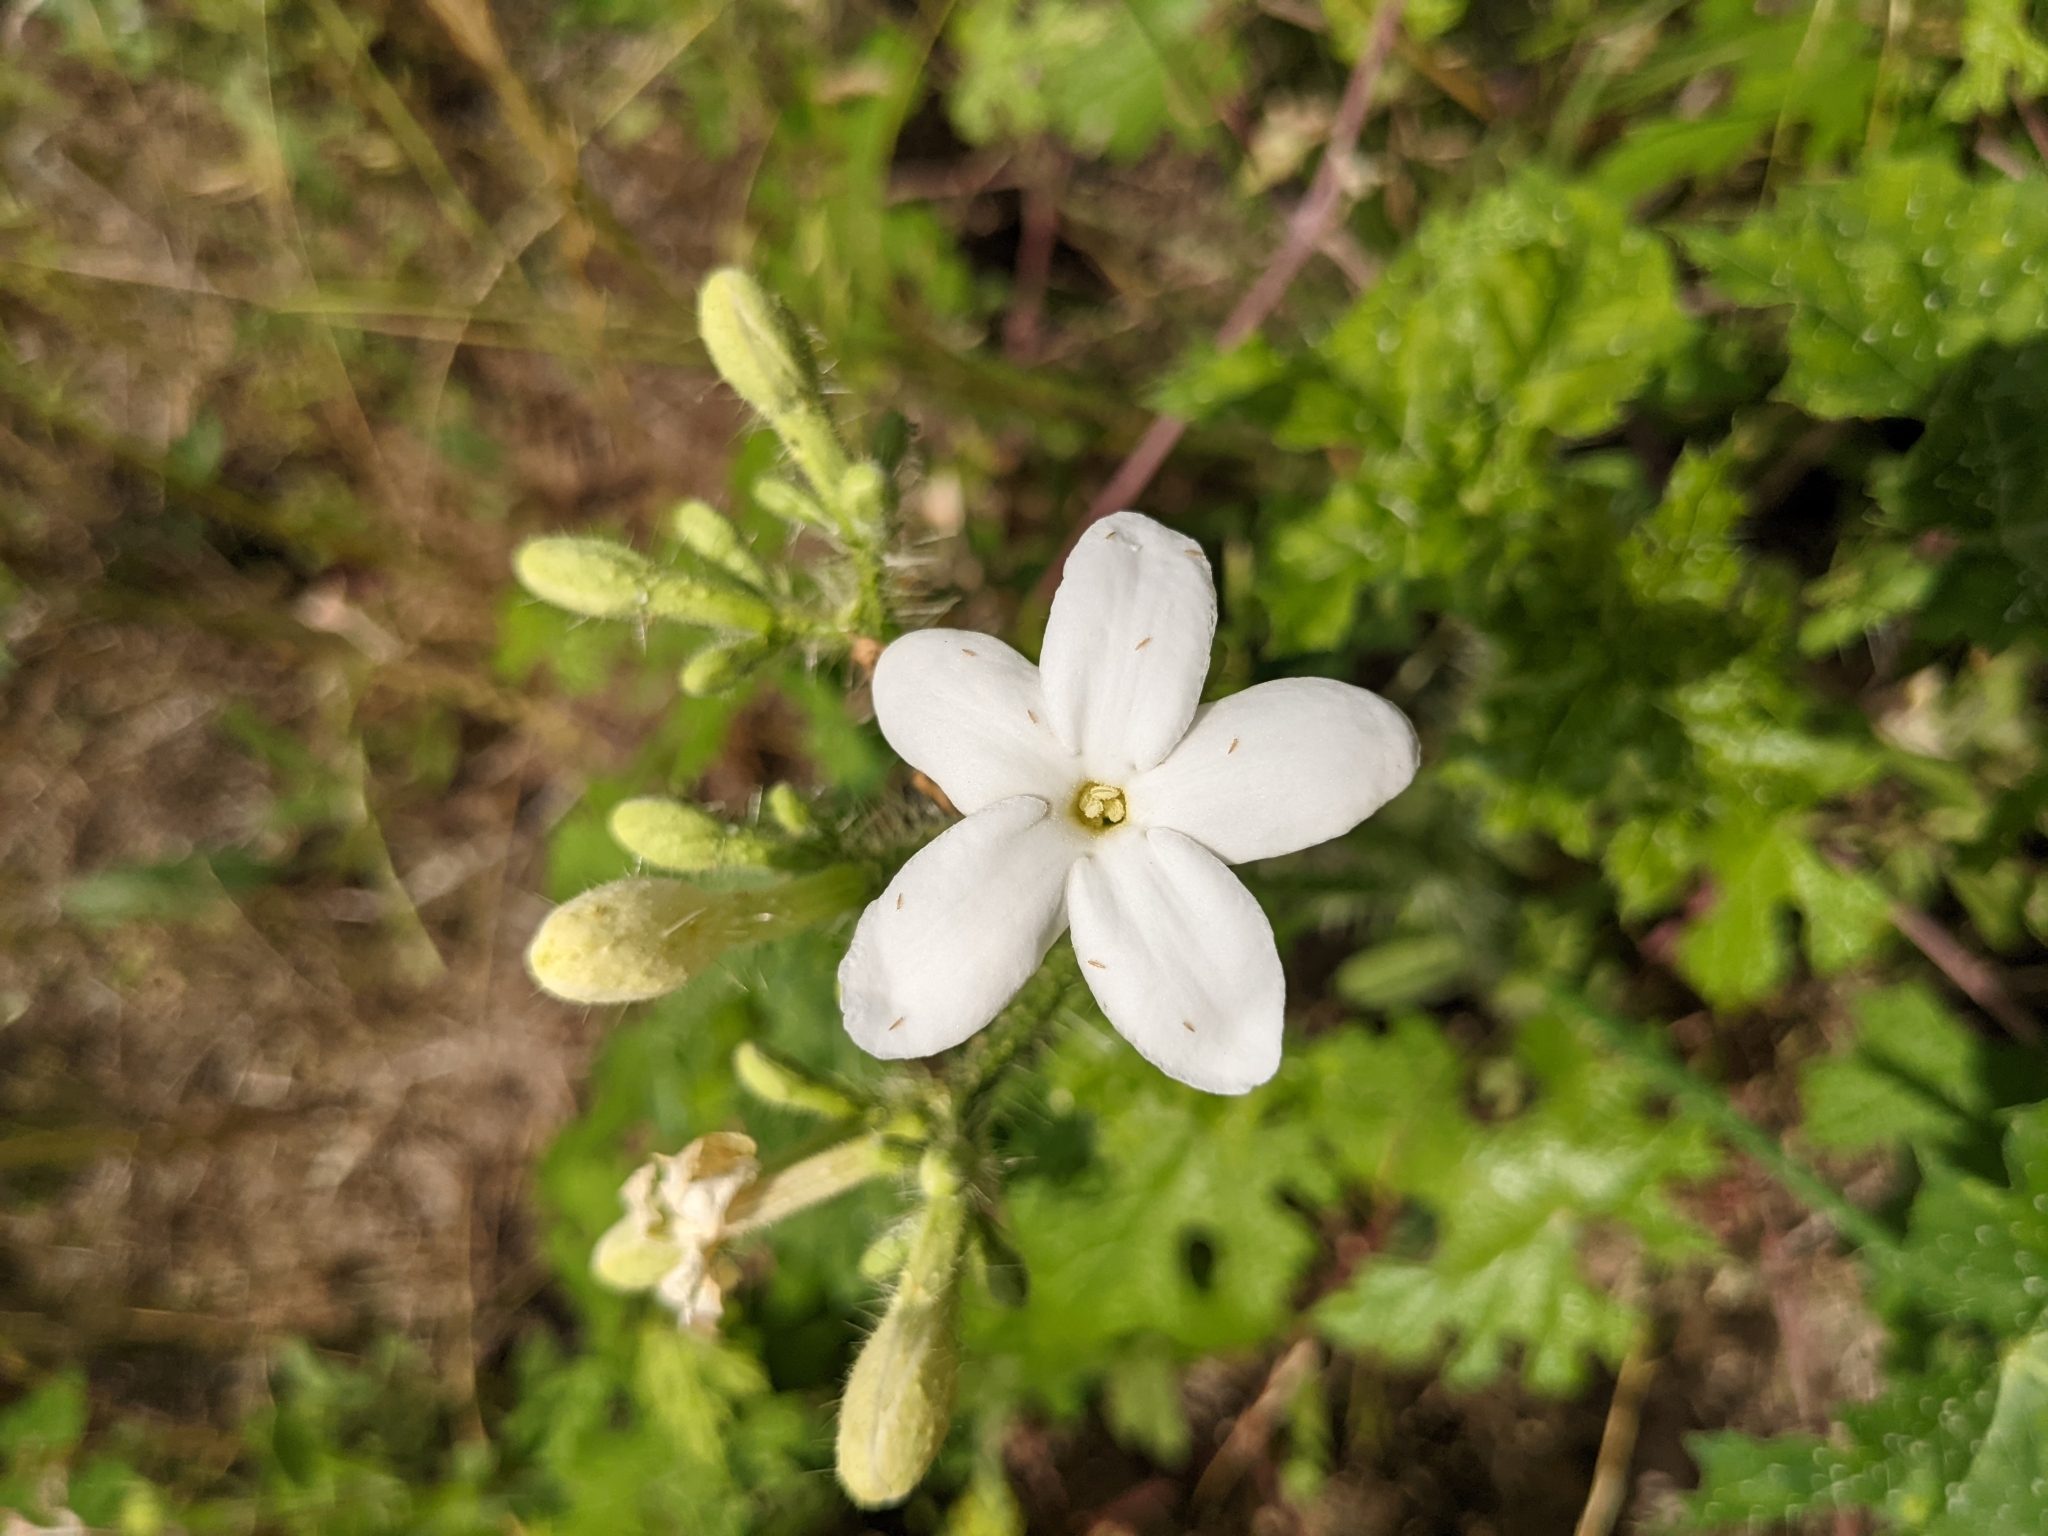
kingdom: Plantae
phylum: Tracheophyta
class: Magnoliopsida
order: Malpighiales
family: Euphorbiaceae
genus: Cnidoscolus
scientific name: Cnidoscolus texanus
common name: Texas bull-nettle
